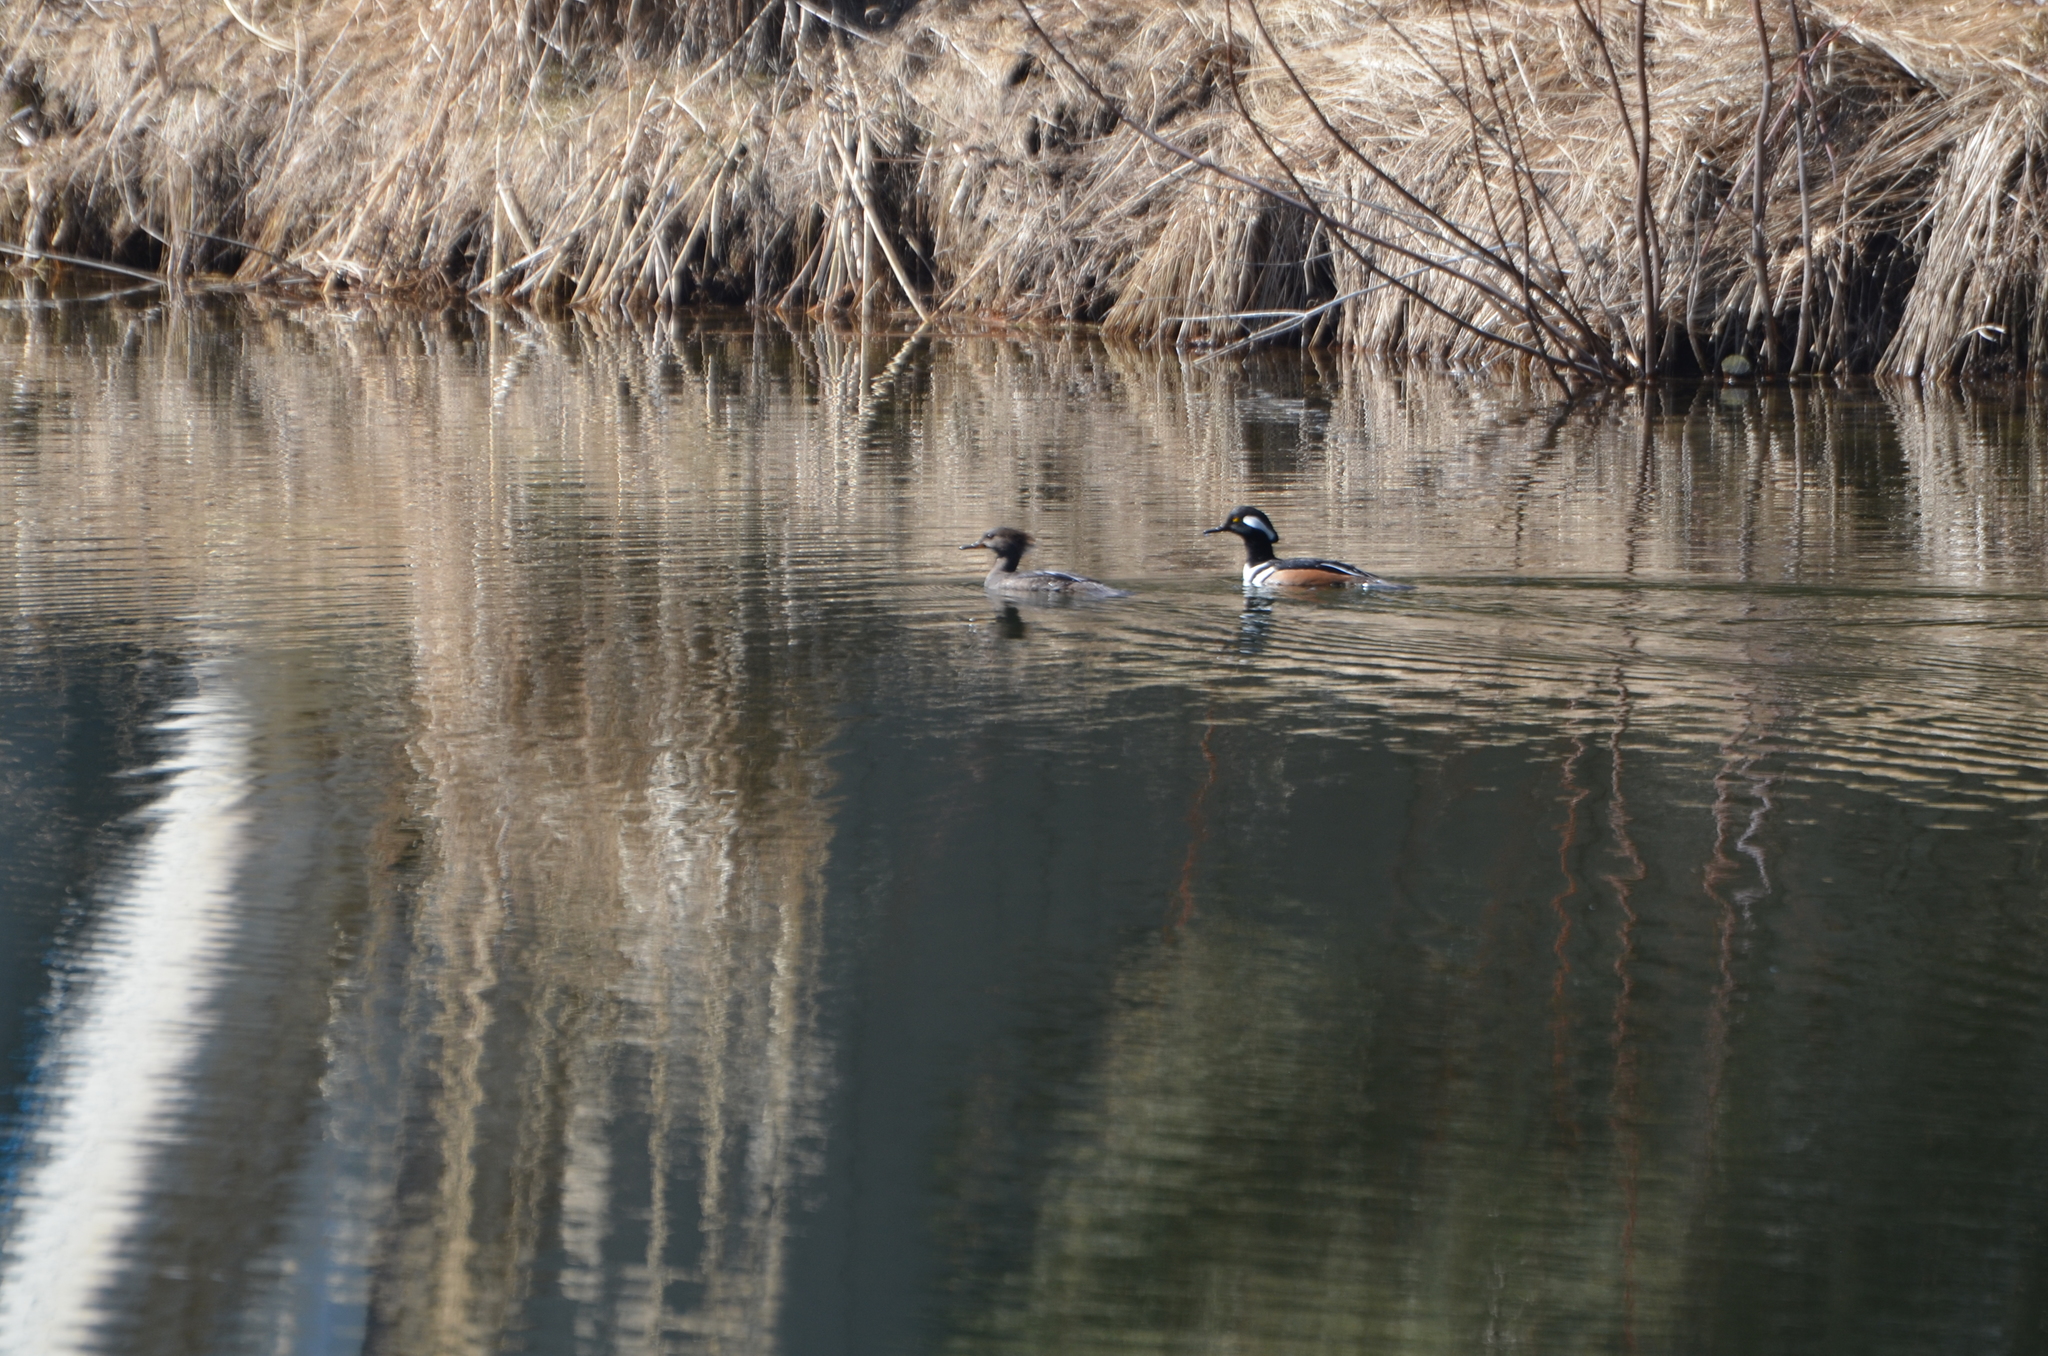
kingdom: Animalia
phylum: Chordata
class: Aves
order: Anseriformes
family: Anatidae
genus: Lophodytes
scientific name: Lophodytes cucullatus
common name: Hooded merganser
